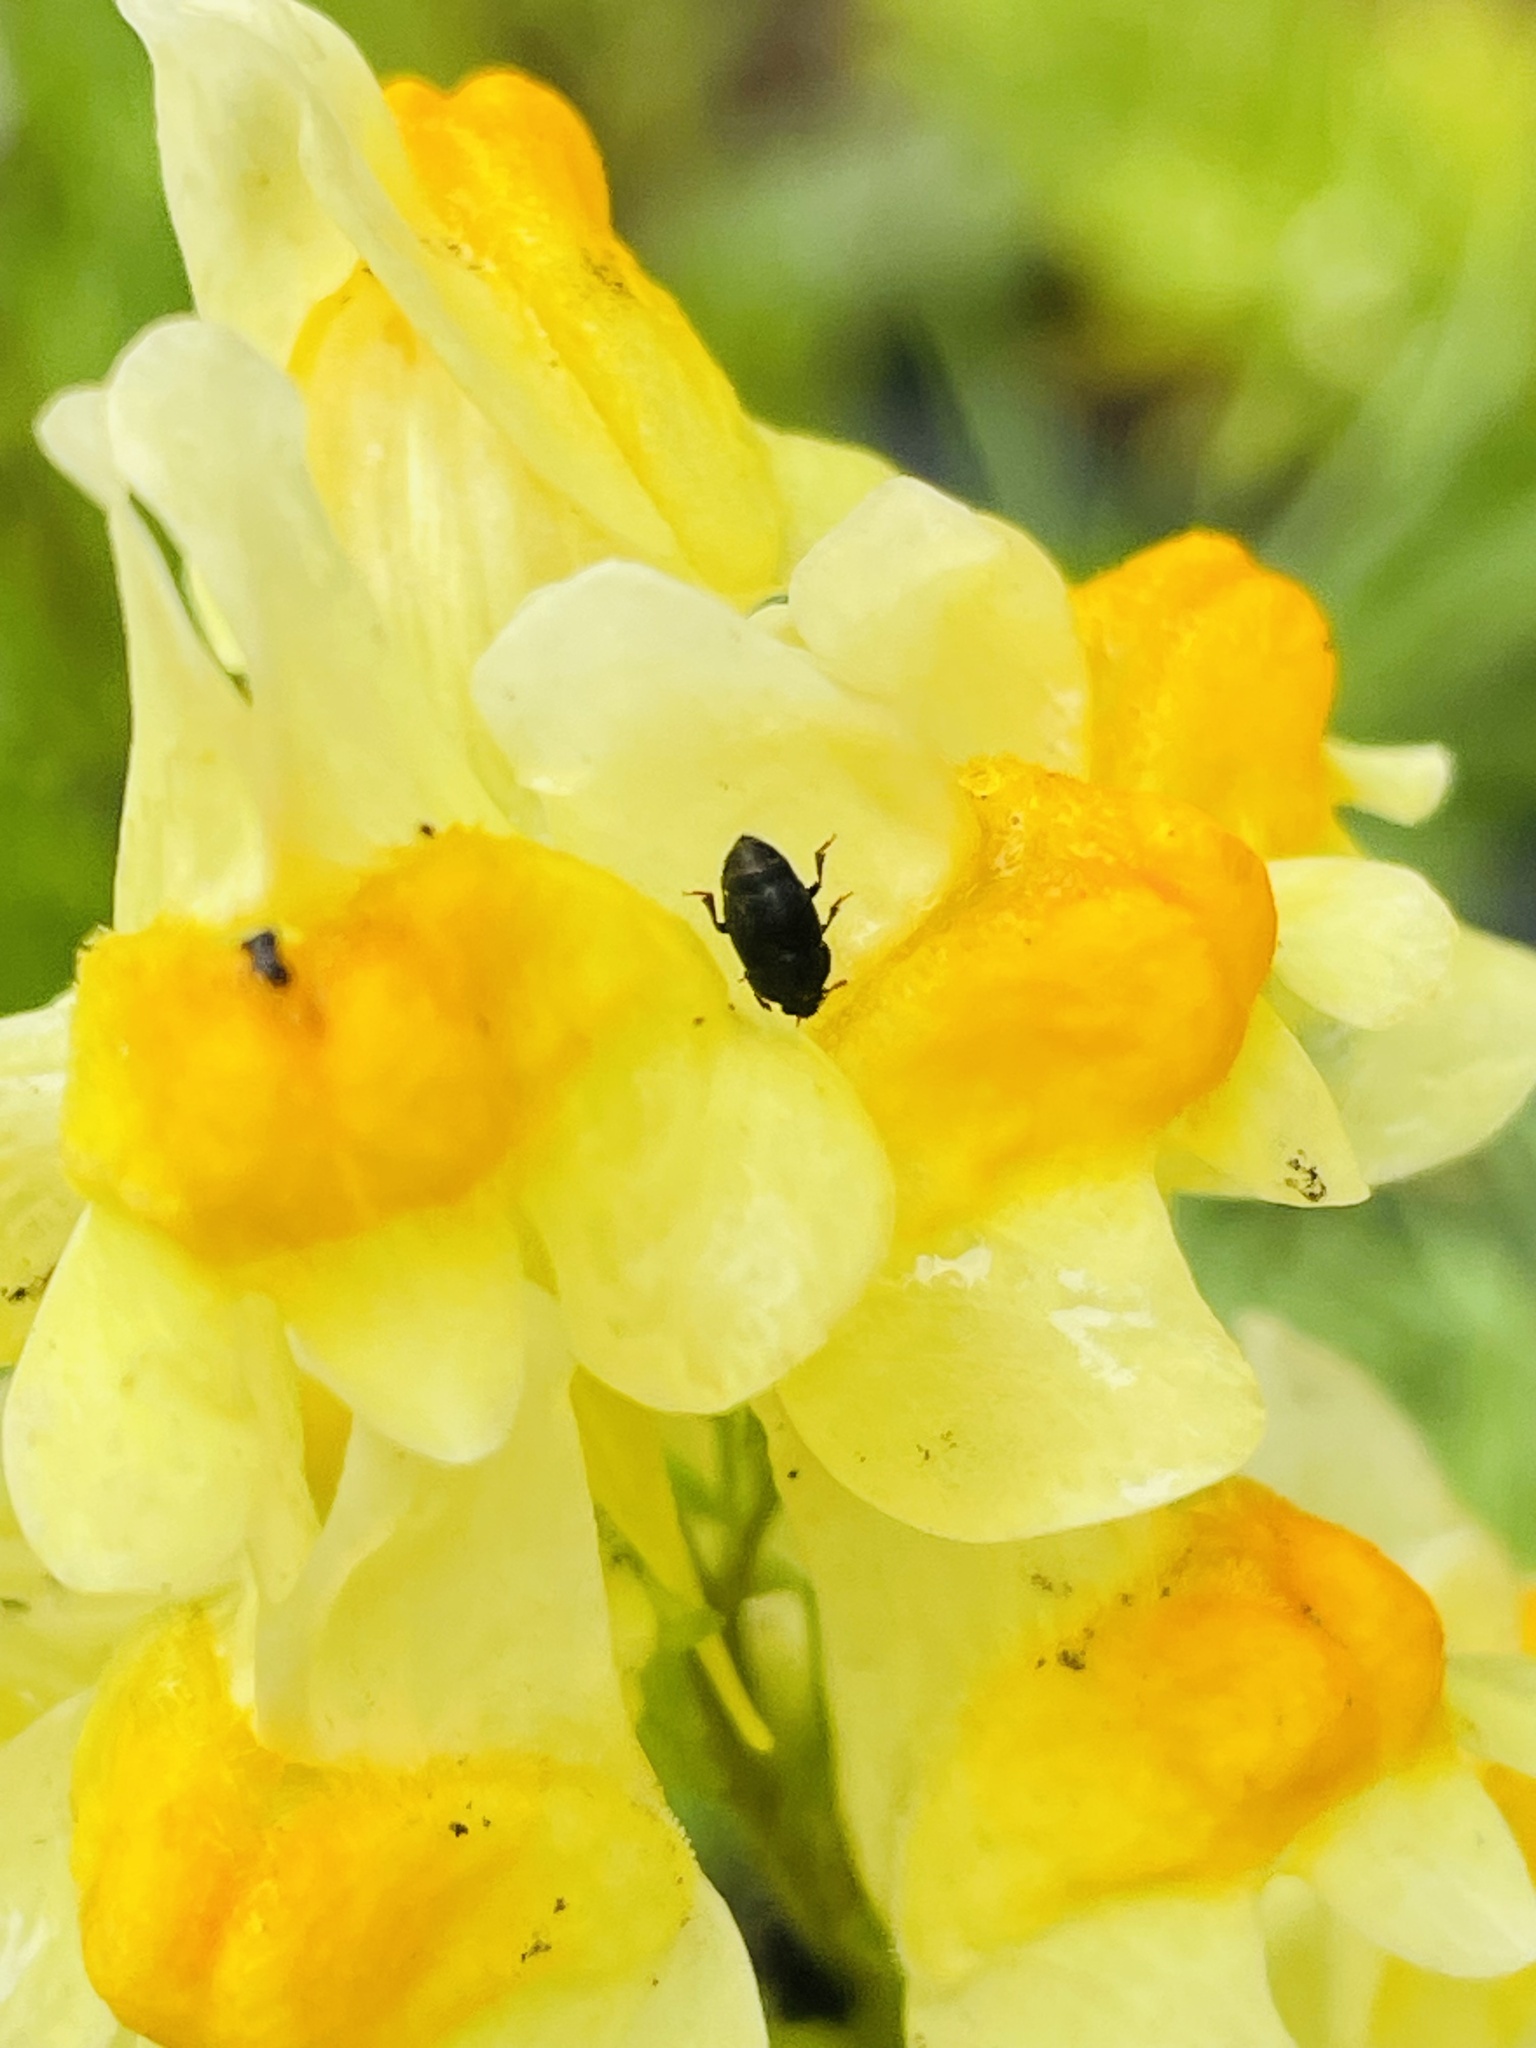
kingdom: Animalia
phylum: Arthropoda
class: Insecta
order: Coleoptera
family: Kateretidae
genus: Brachypterolus
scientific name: Brachypterolus pulicarius
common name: Antirrhinum beetle
